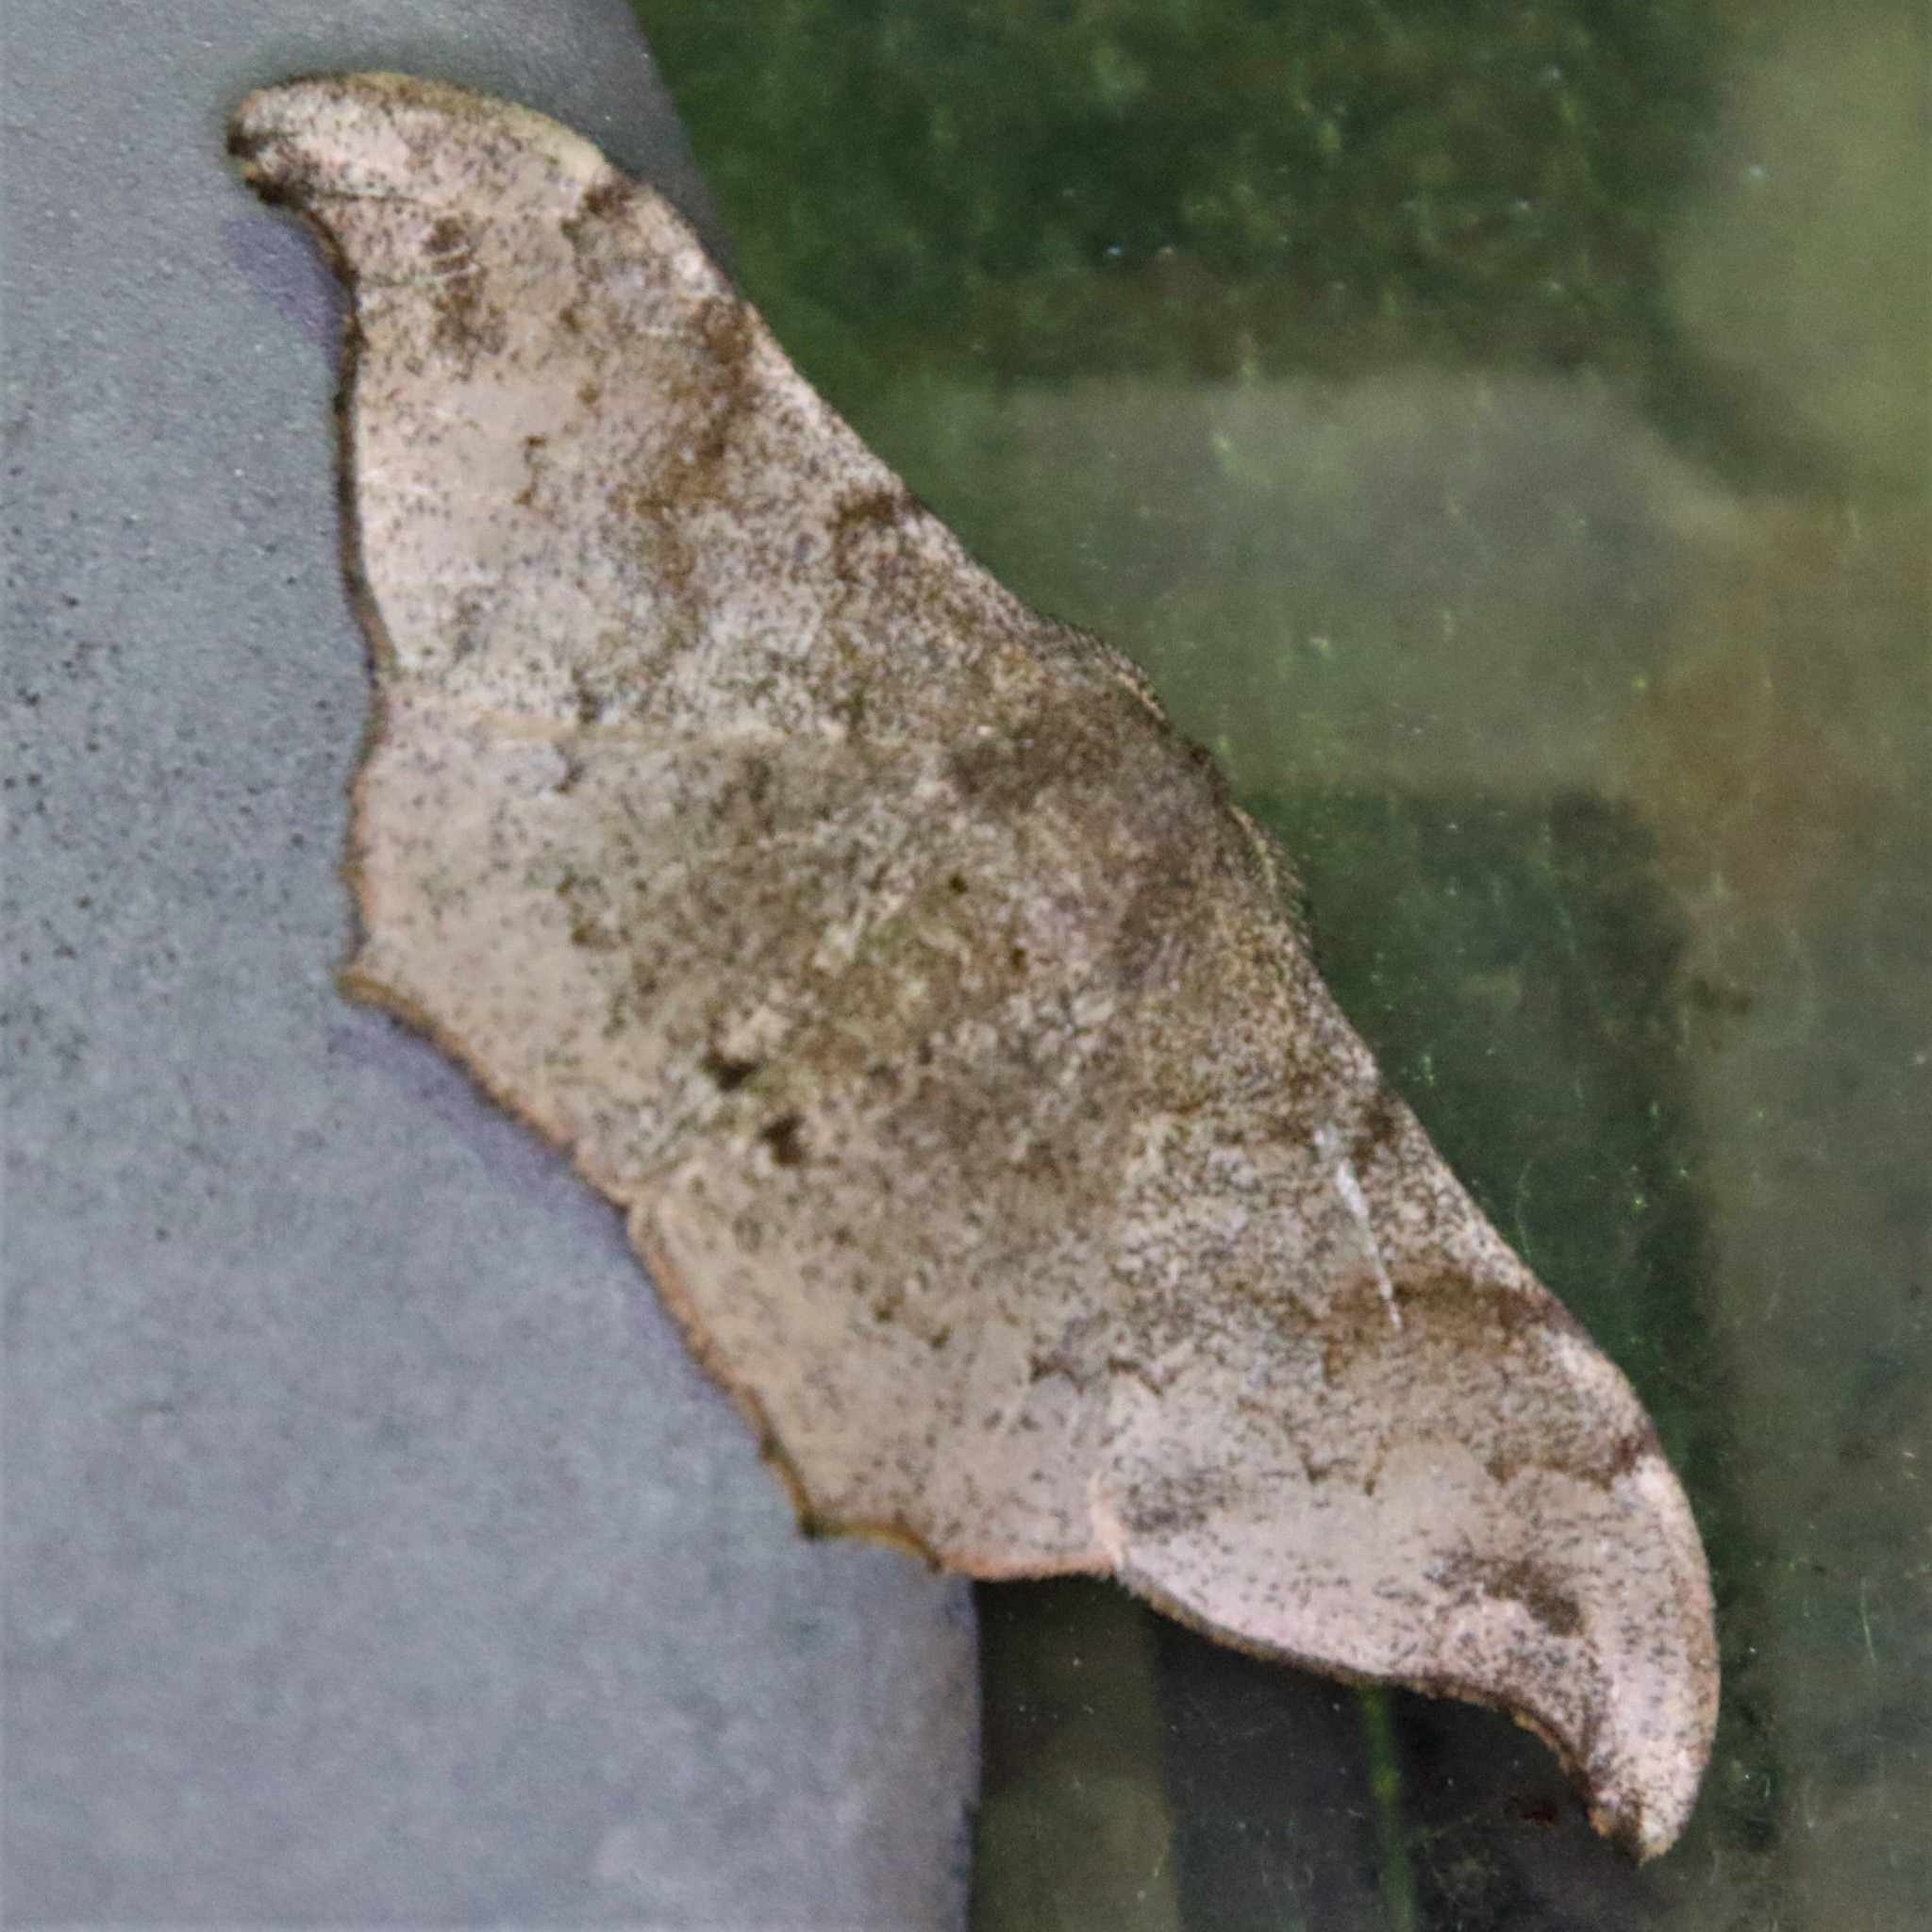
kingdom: Animalia
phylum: Arthropoda
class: Insecta
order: Lepidoptera
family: Geometridae
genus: Hyposidra
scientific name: Hyposidra talaca
